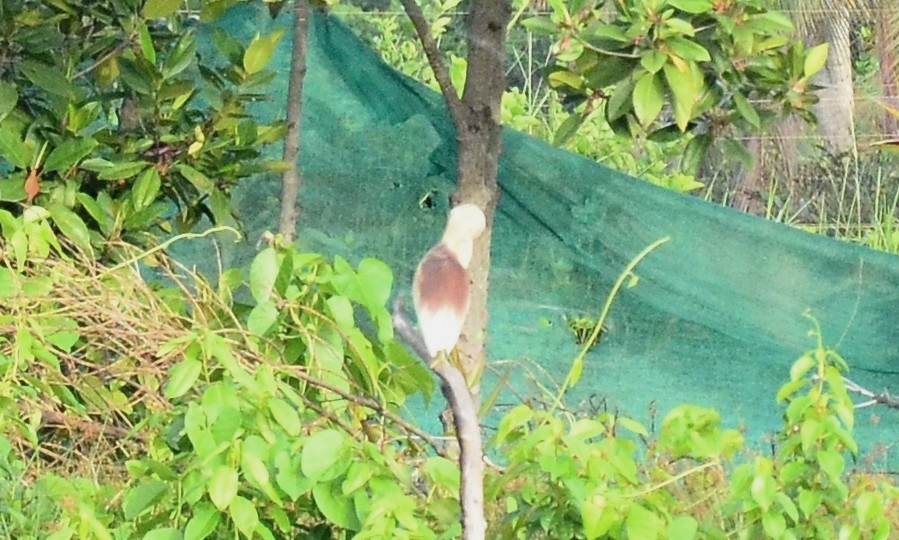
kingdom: Animalia
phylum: Chordata
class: Aves
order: Pelecaniformes
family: Ardeidae
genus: Ardeola
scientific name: Ardeola grayii
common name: Indian pond heron
